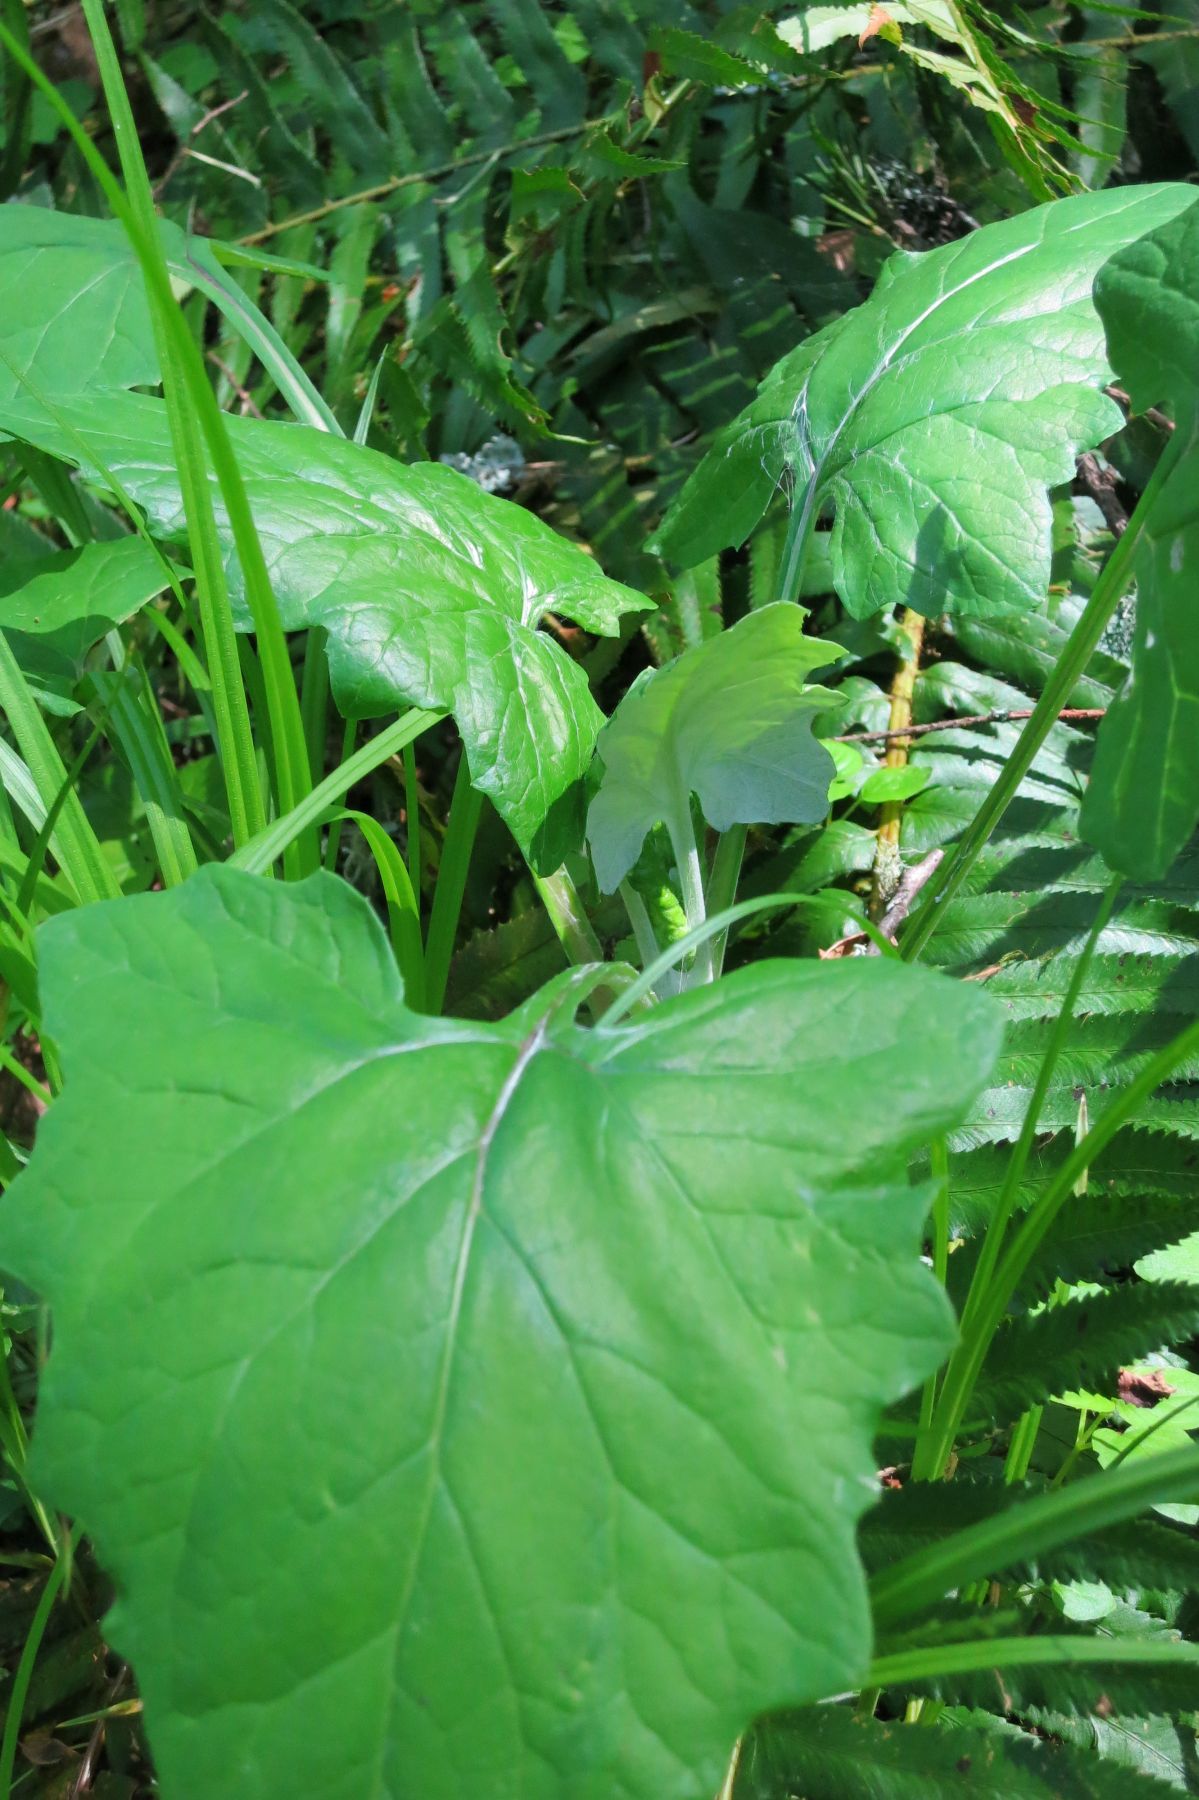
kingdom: Plantae
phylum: Tracheophyta
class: Magnoliopsida
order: Asterales
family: Asteraceae
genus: Adenocaulon
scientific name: Adenocaulon bicolor
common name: Trailplant
